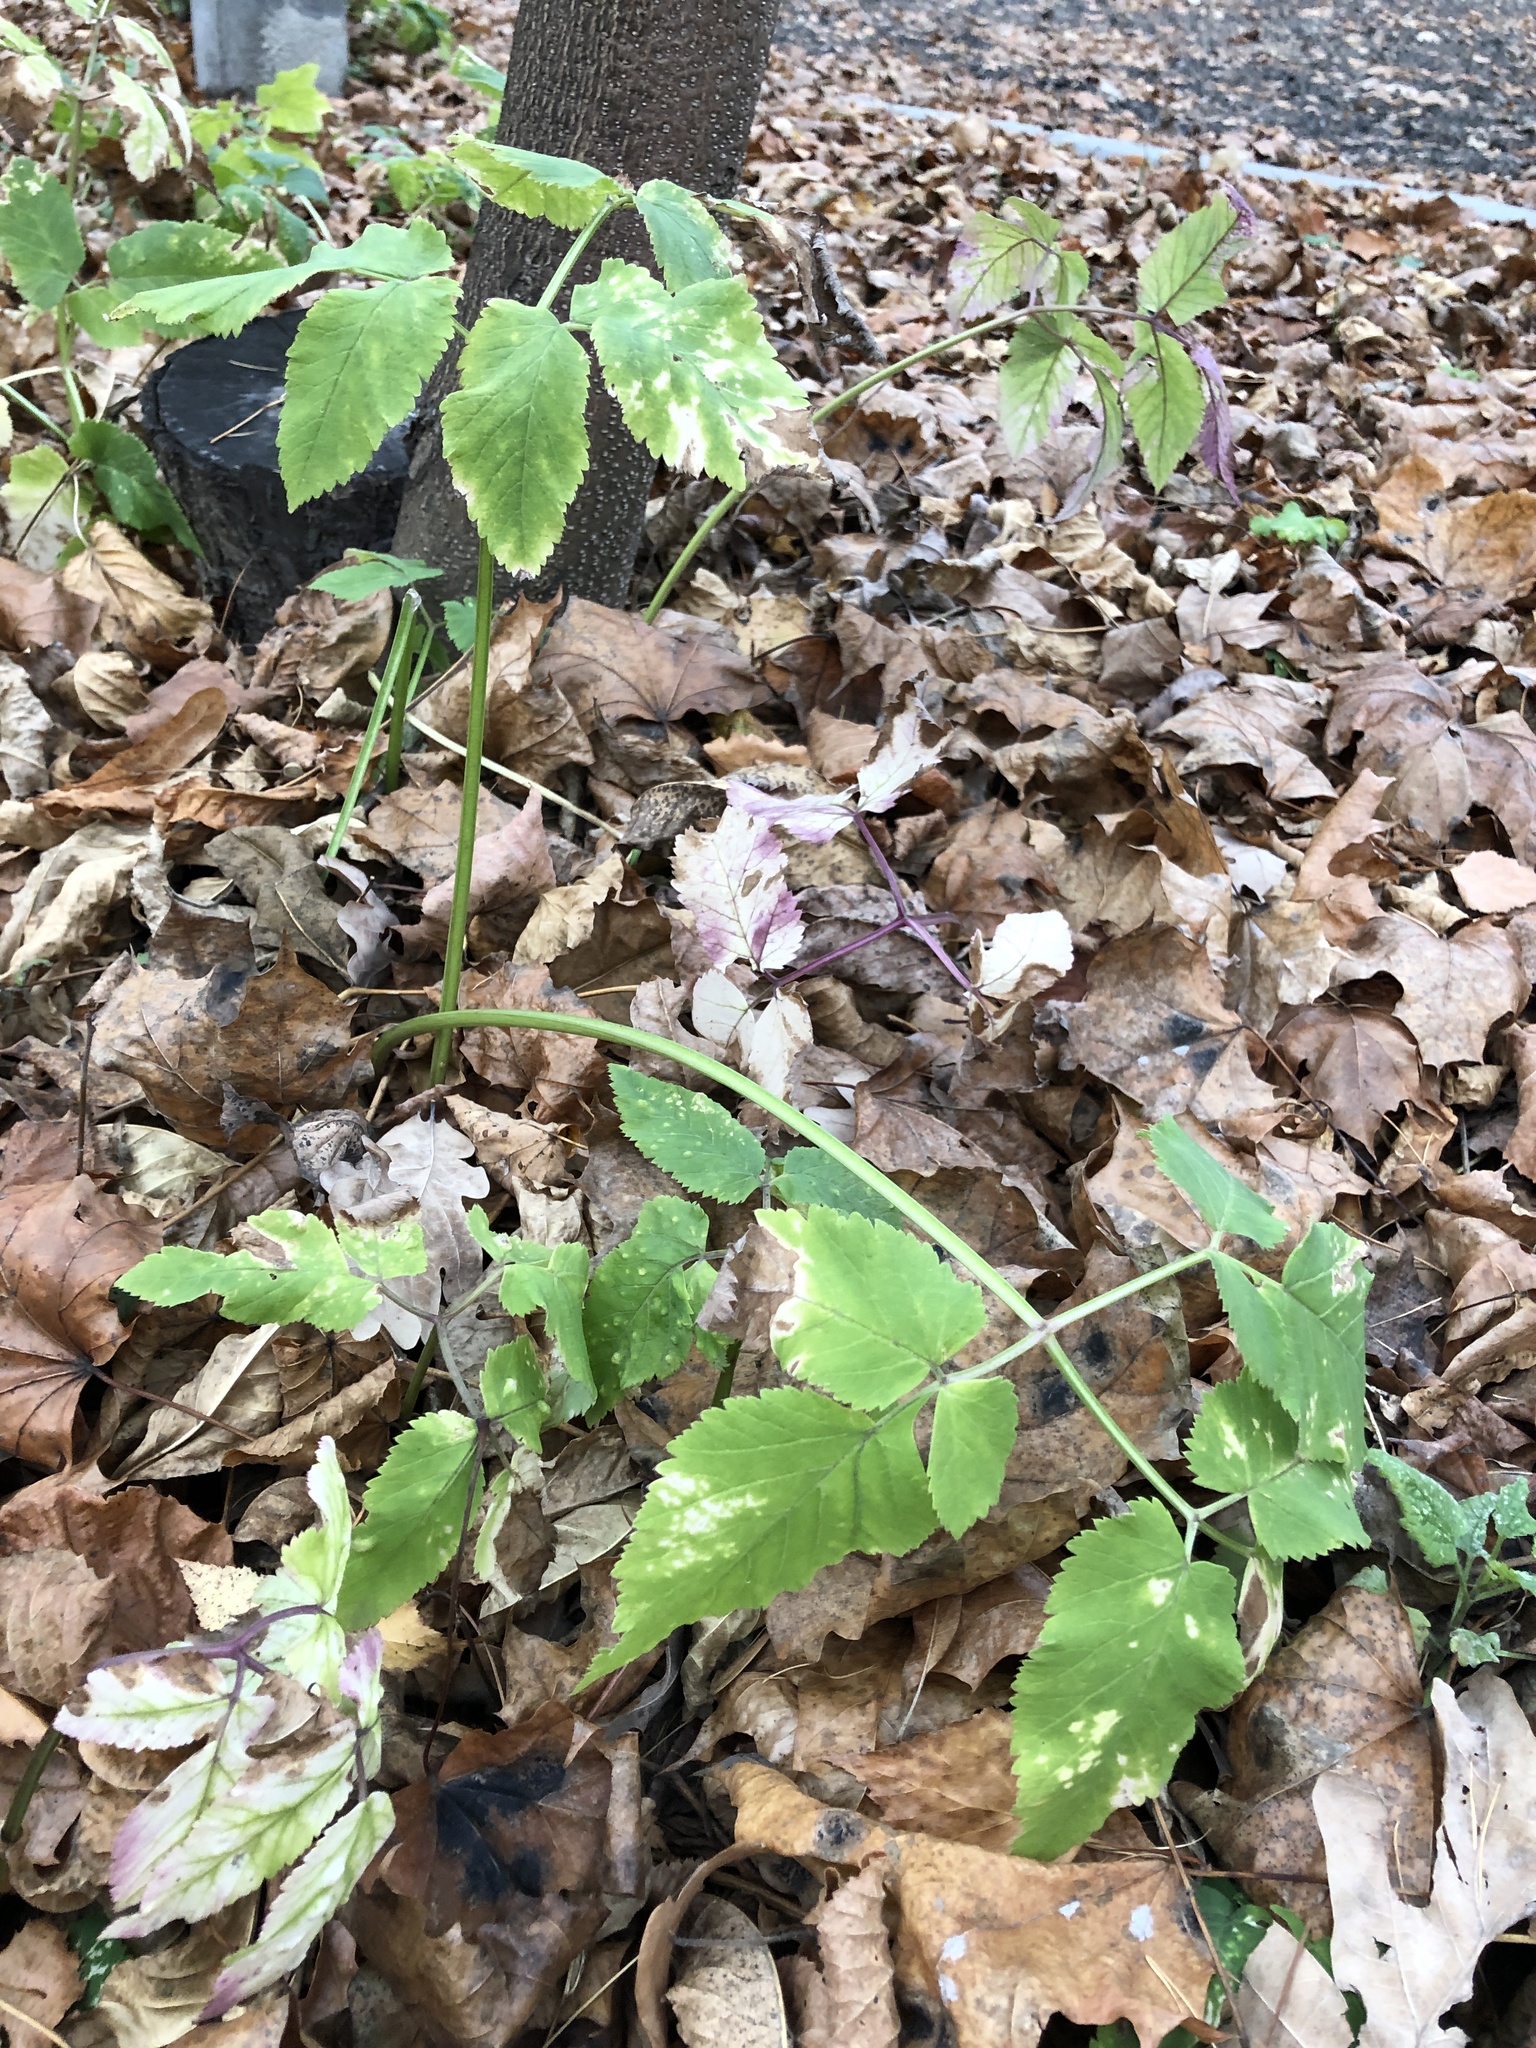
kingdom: Plantae
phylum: Tracheophyta
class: Magnoliopsida
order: Apiales
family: Apiaceae
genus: Aegopodium
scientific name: Aegopodium podagraria
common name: Ground-elder
